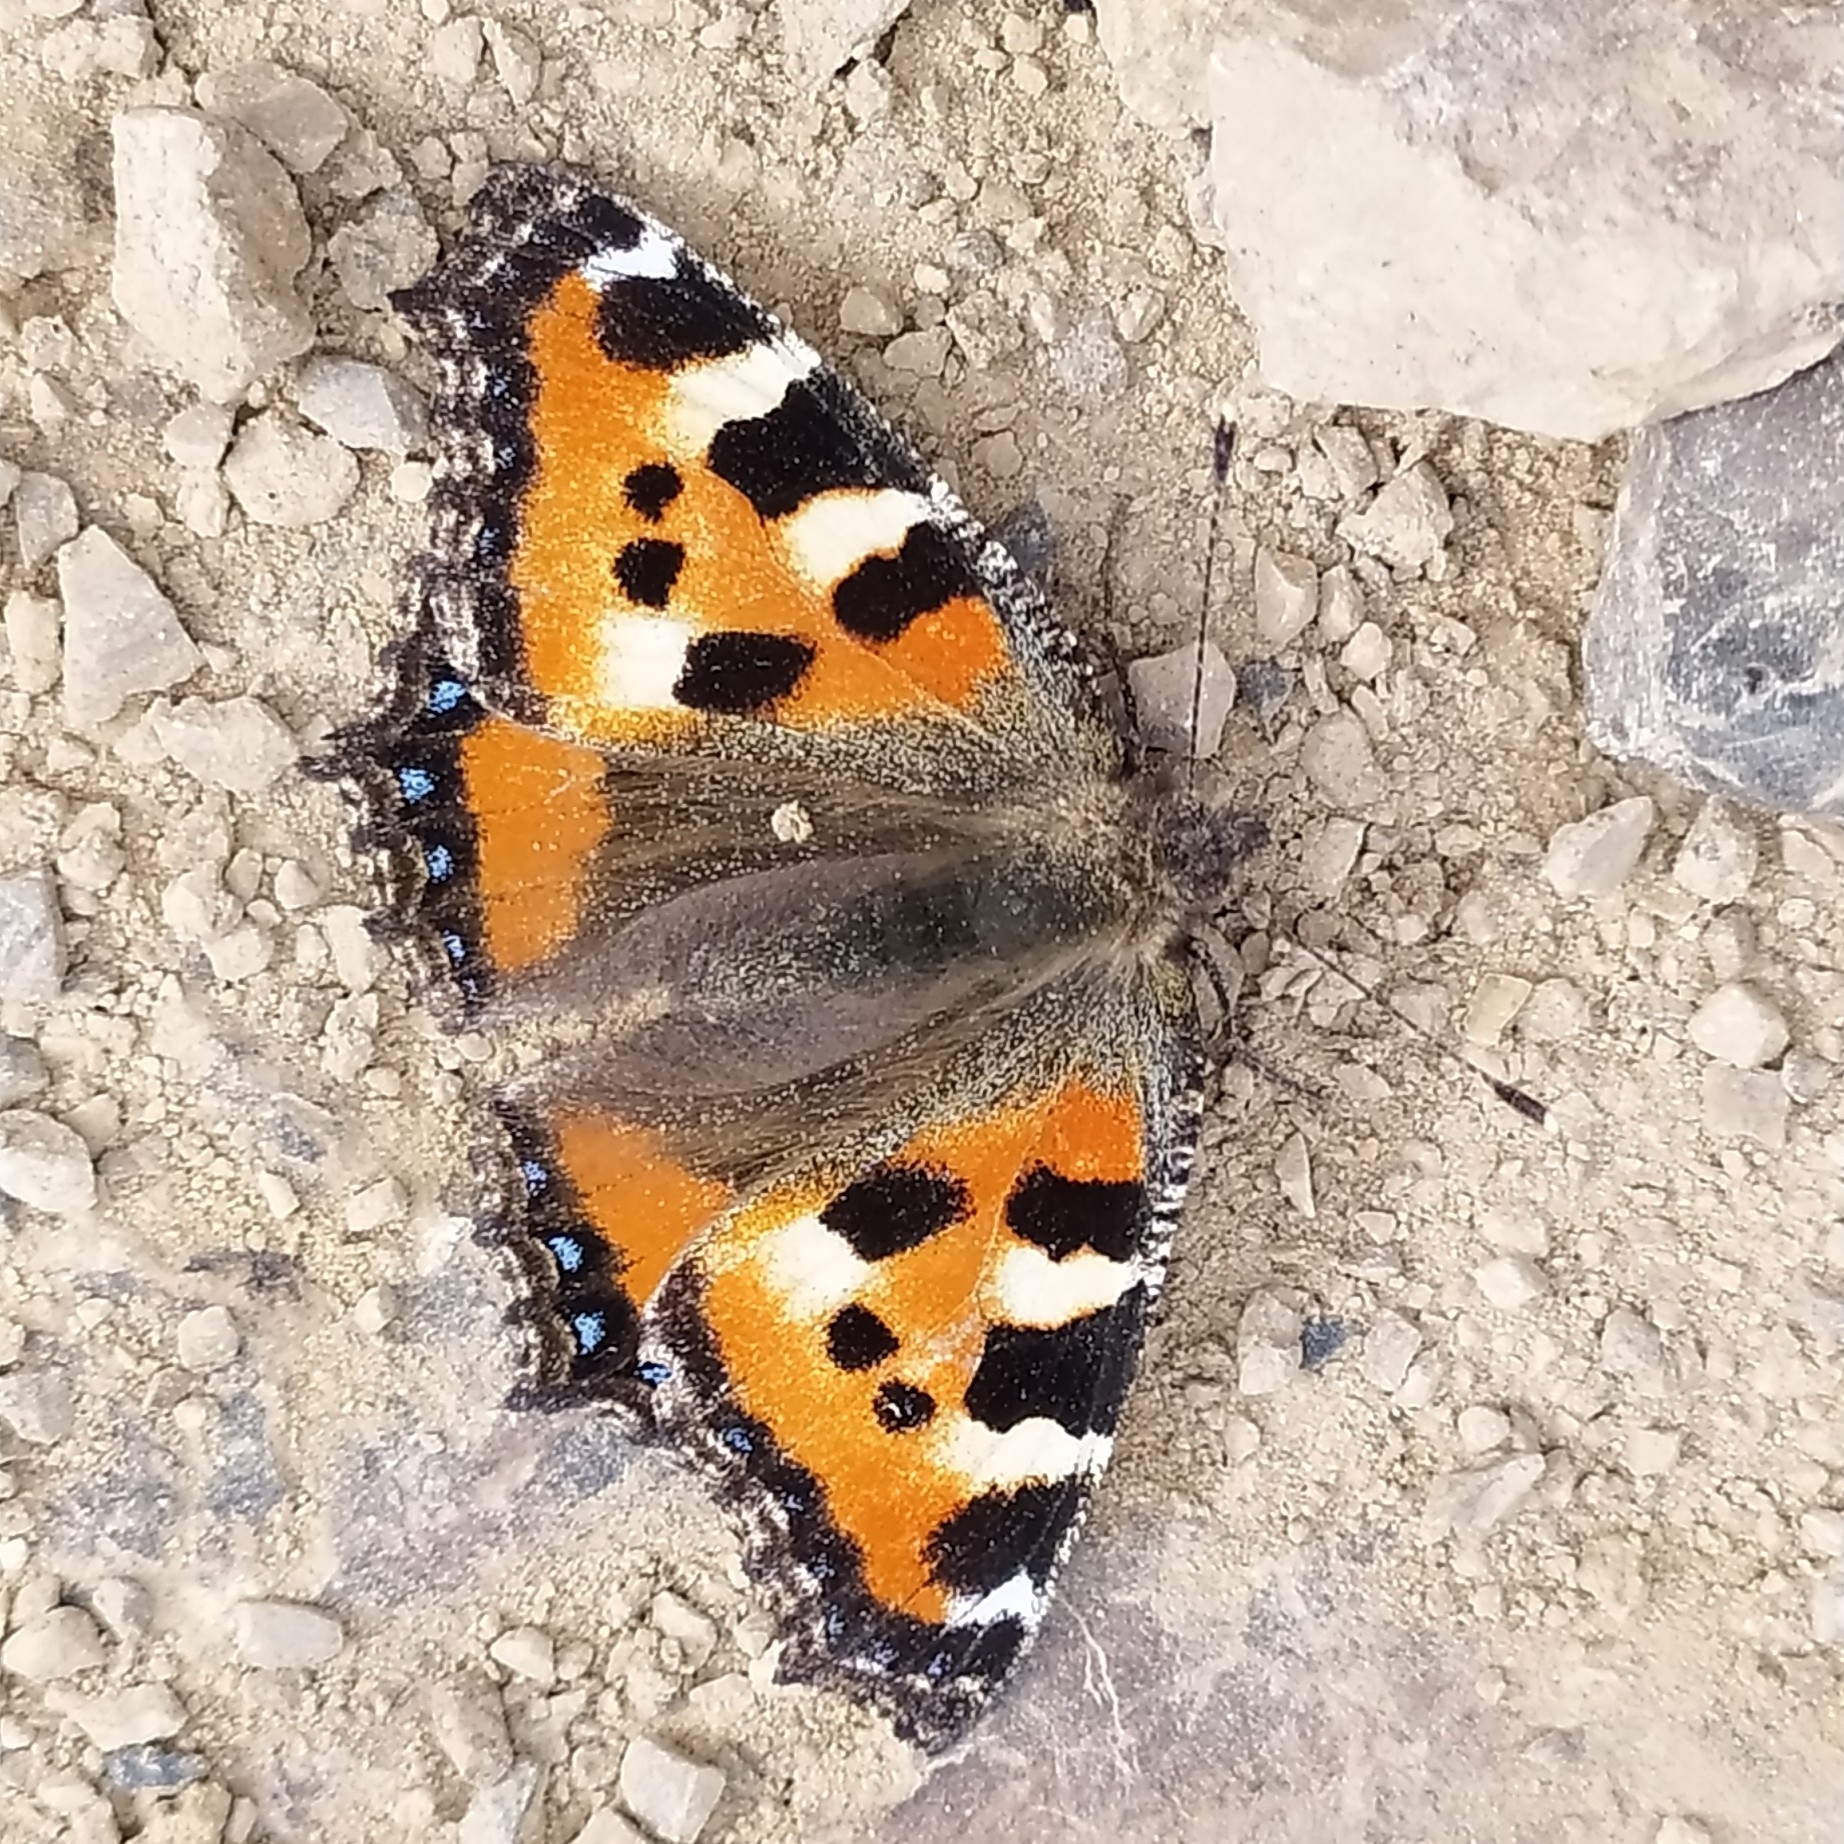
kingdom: Animalia
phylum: Arthropoda
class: Insecta
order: Lepidoptera
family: Nymphalidae
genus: Aglais
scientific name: Aglais urticae
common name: Small tortoiseshell
